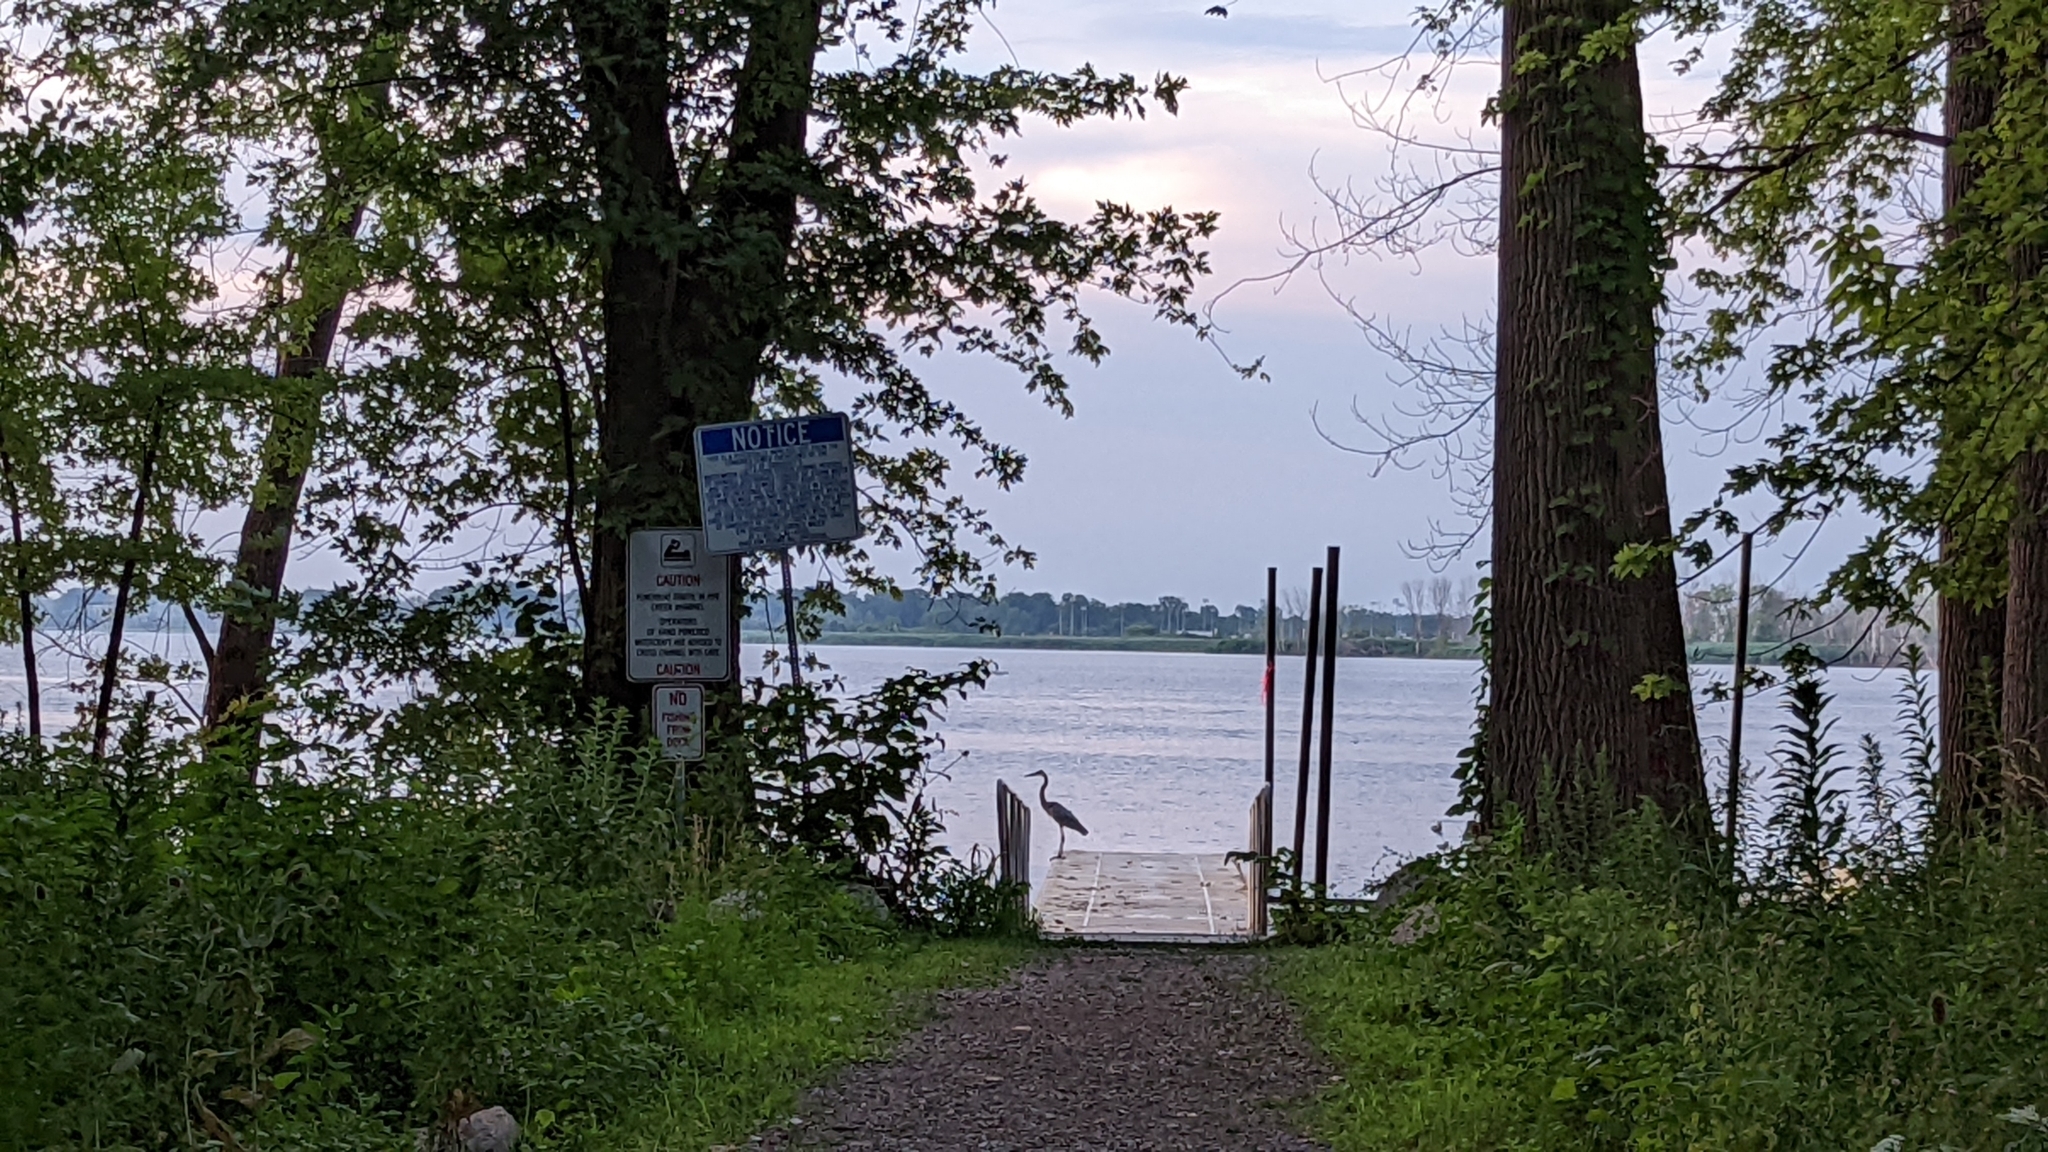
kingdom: Animalia
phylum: Chordata
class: Aves
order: Pelecaniformes
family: Ardeidae
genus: Ardea
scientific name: Ardea herodias
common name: Great blue heron
